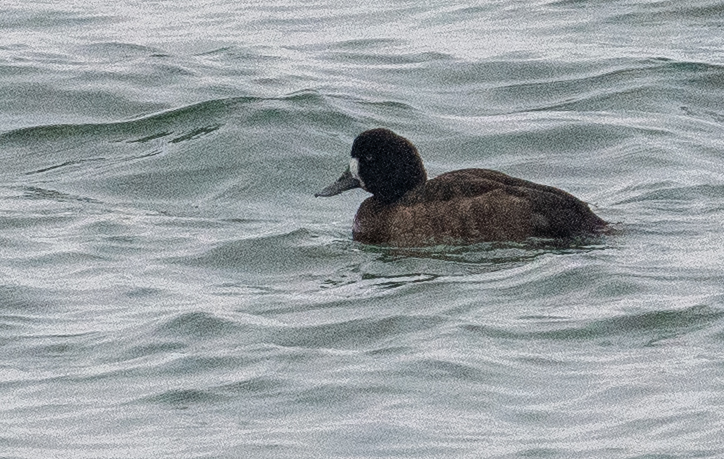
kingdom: Animalia
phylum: Chordata
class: Aves
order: Anseriformes
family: Anatidae
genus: Aythya
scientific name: Aythya marila
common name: Greater scaup
